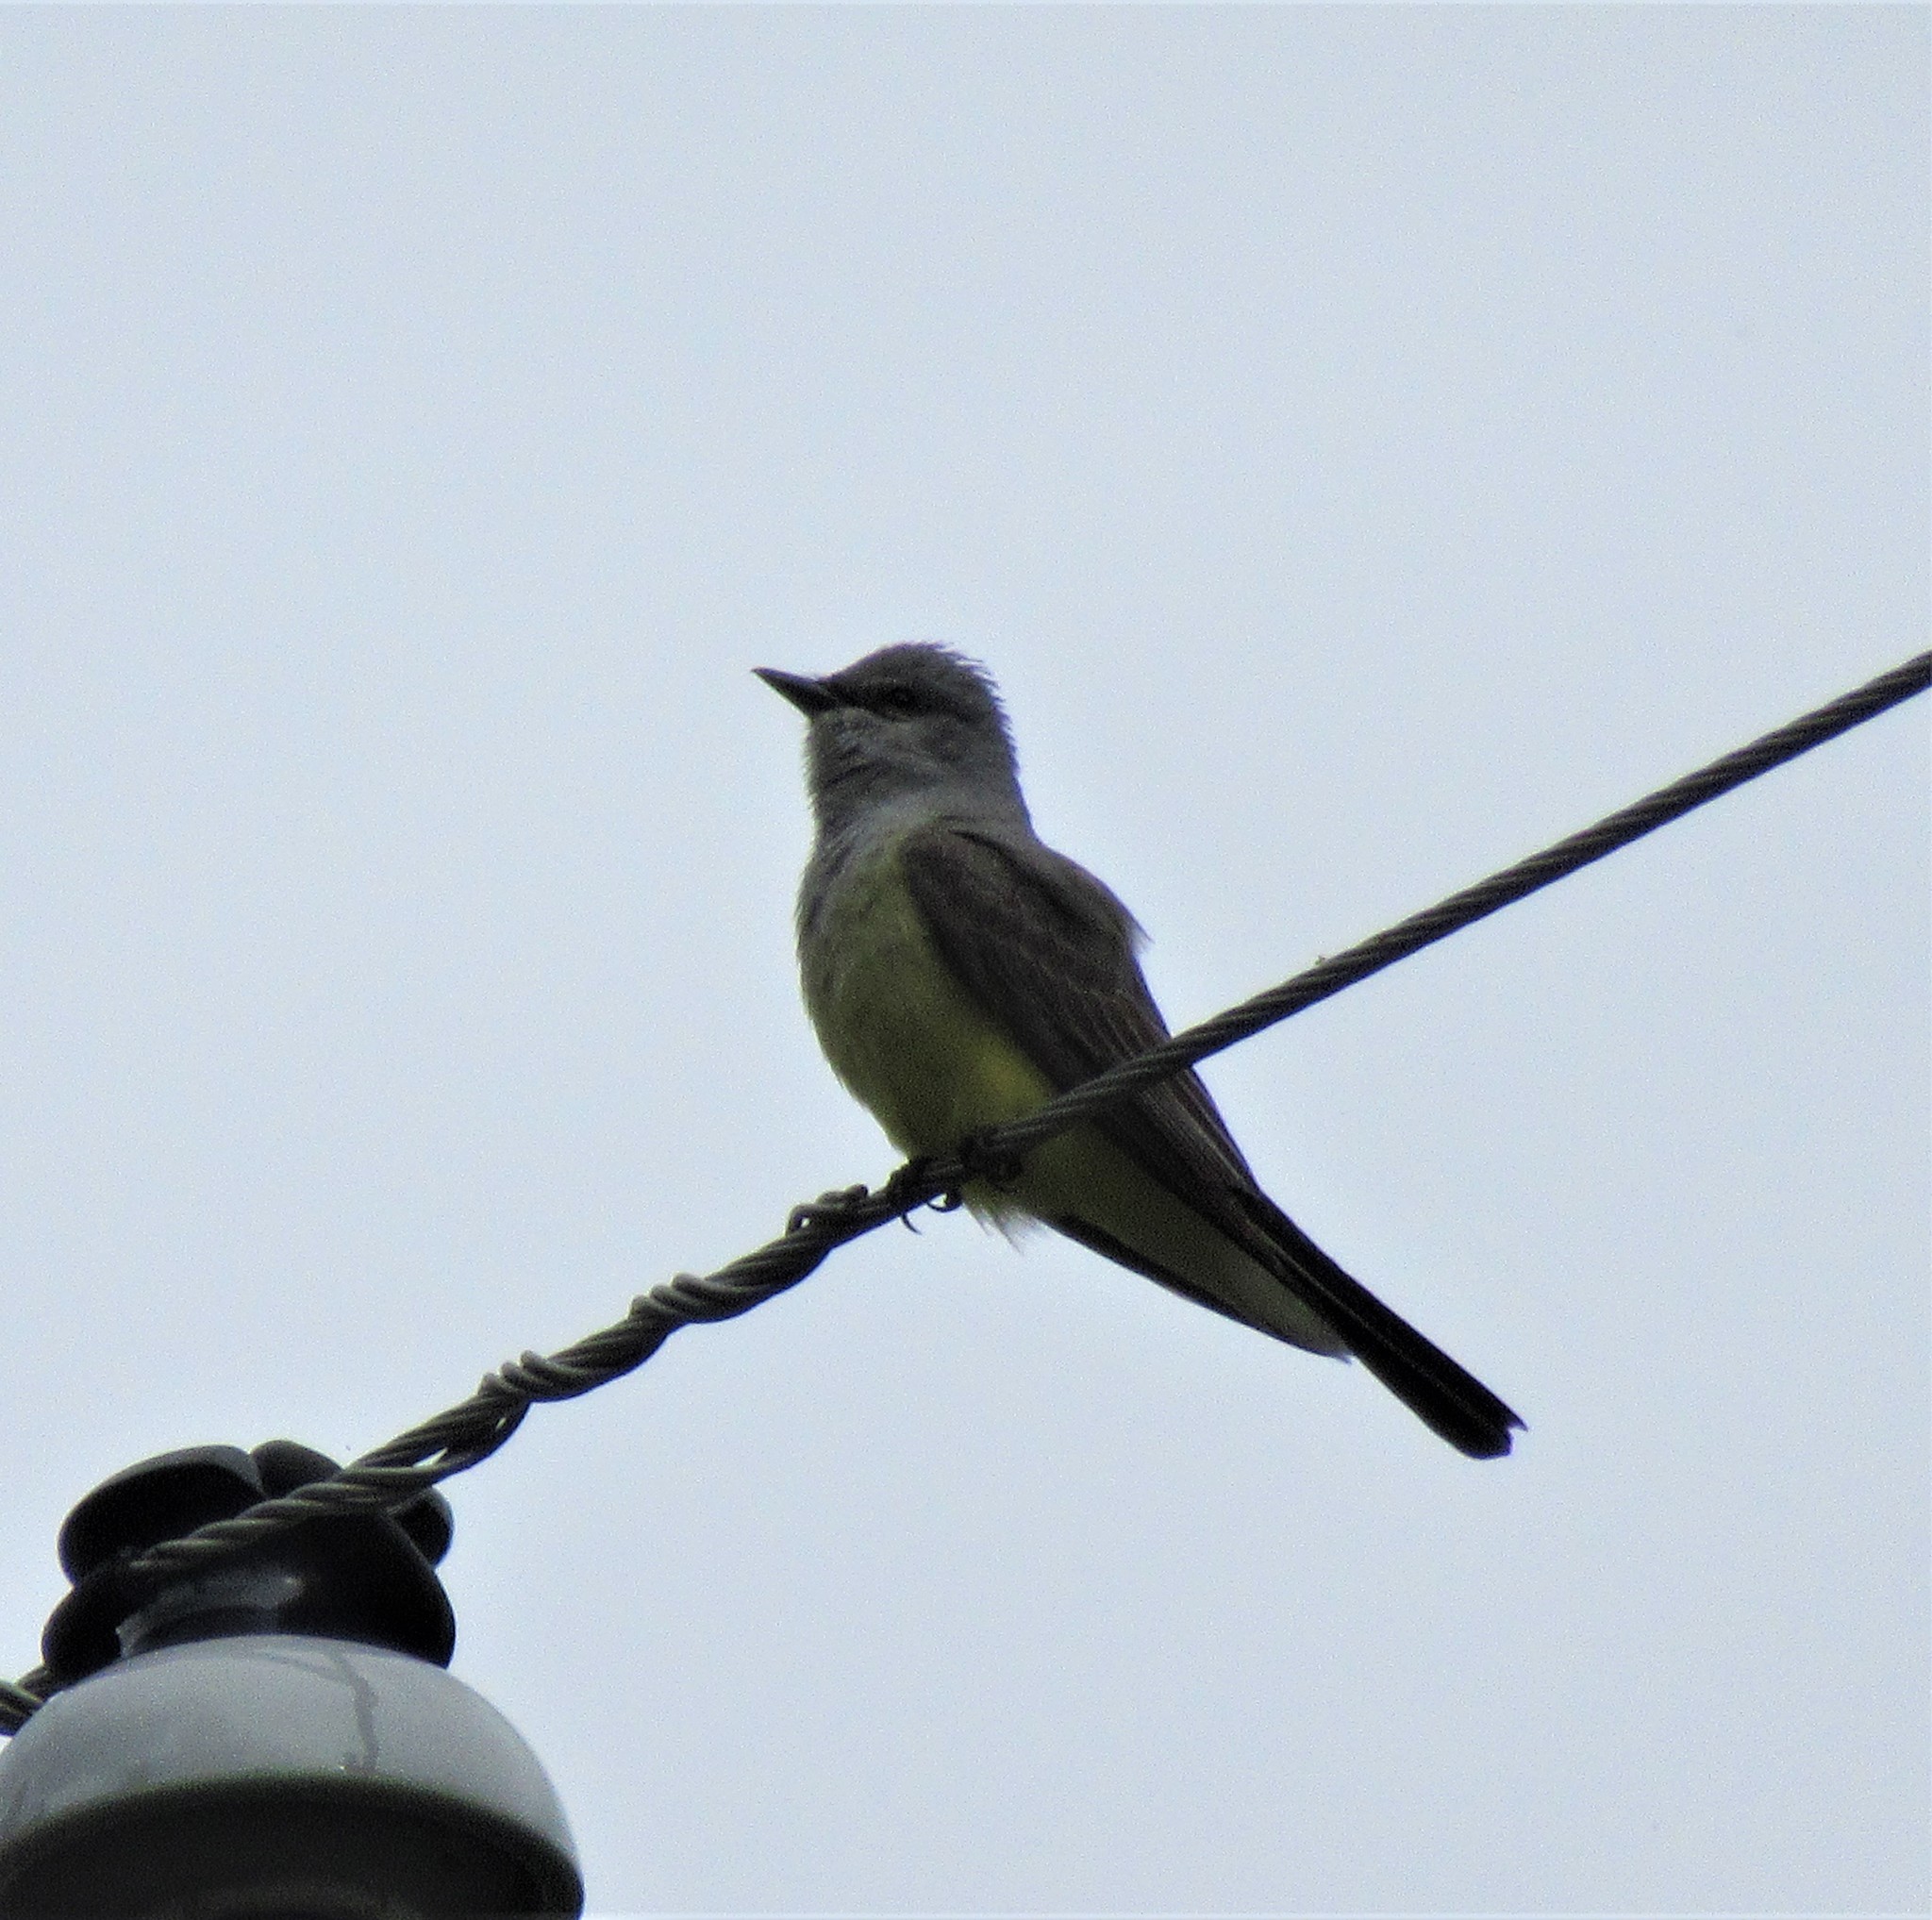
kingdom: Animalia
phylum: Chordata
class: Aves
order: Passeriformes
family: Tyrannidae
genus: Tyrannus
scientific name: Tyrannus verticalis
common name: Western kingbird
